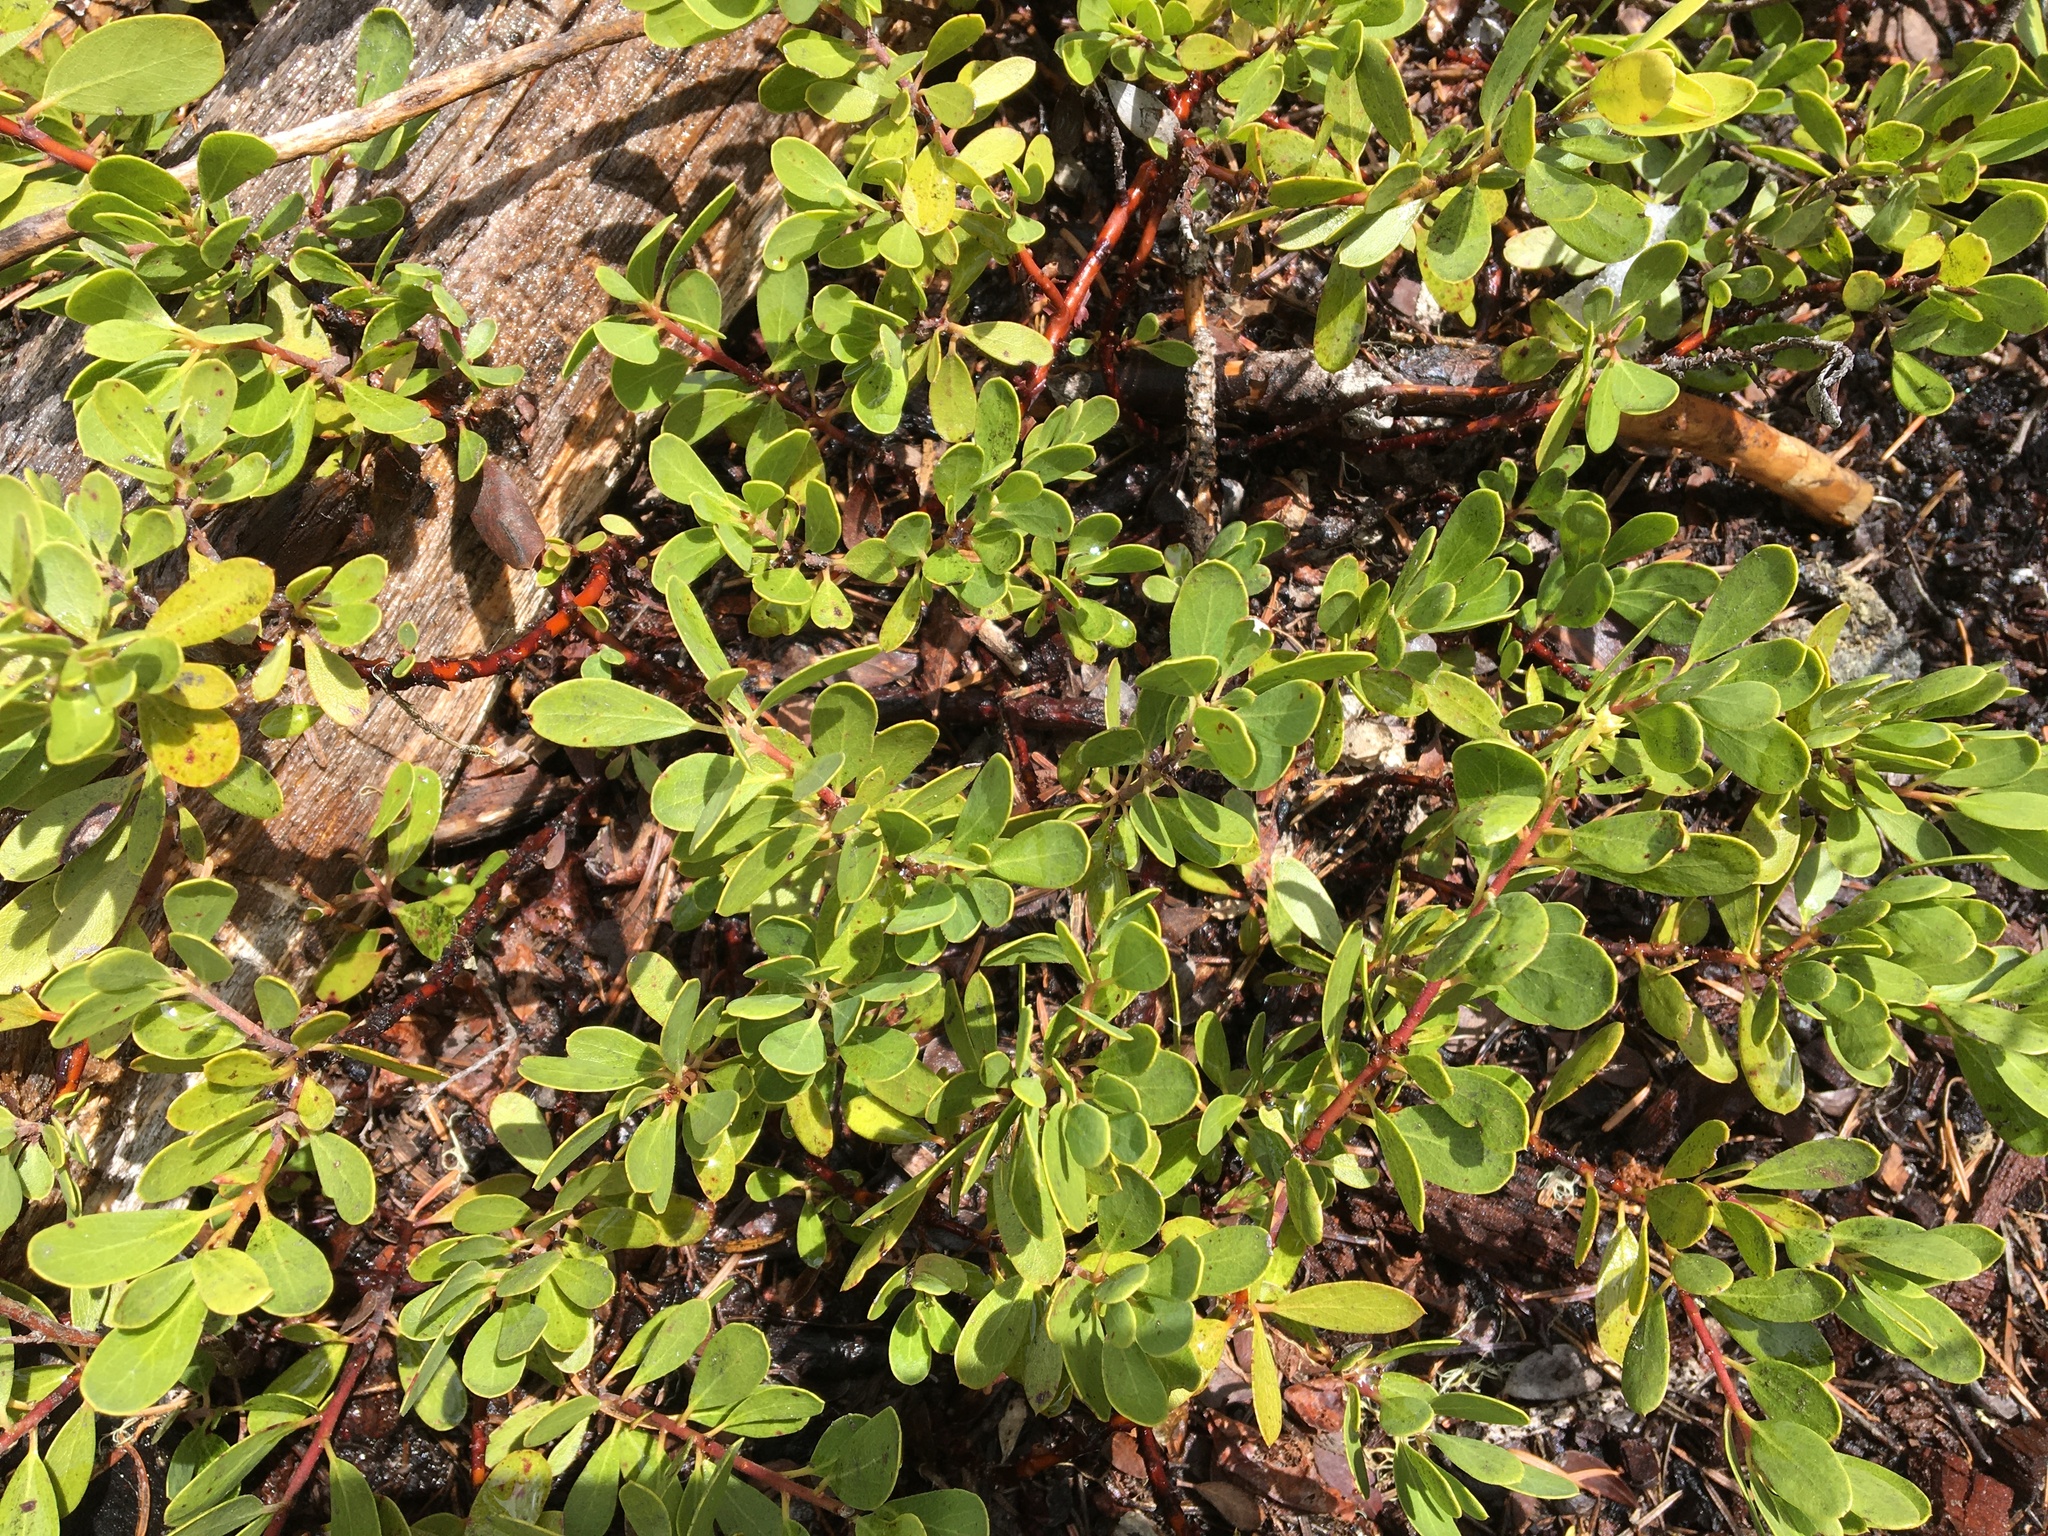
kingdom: Plantae
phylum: Tracheophyta
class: Magnoliopsida
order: Ericales
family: Ericaceae
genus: Arctostaphylos
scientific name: Arctostaphylos uva-ursi
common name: Bearberry
